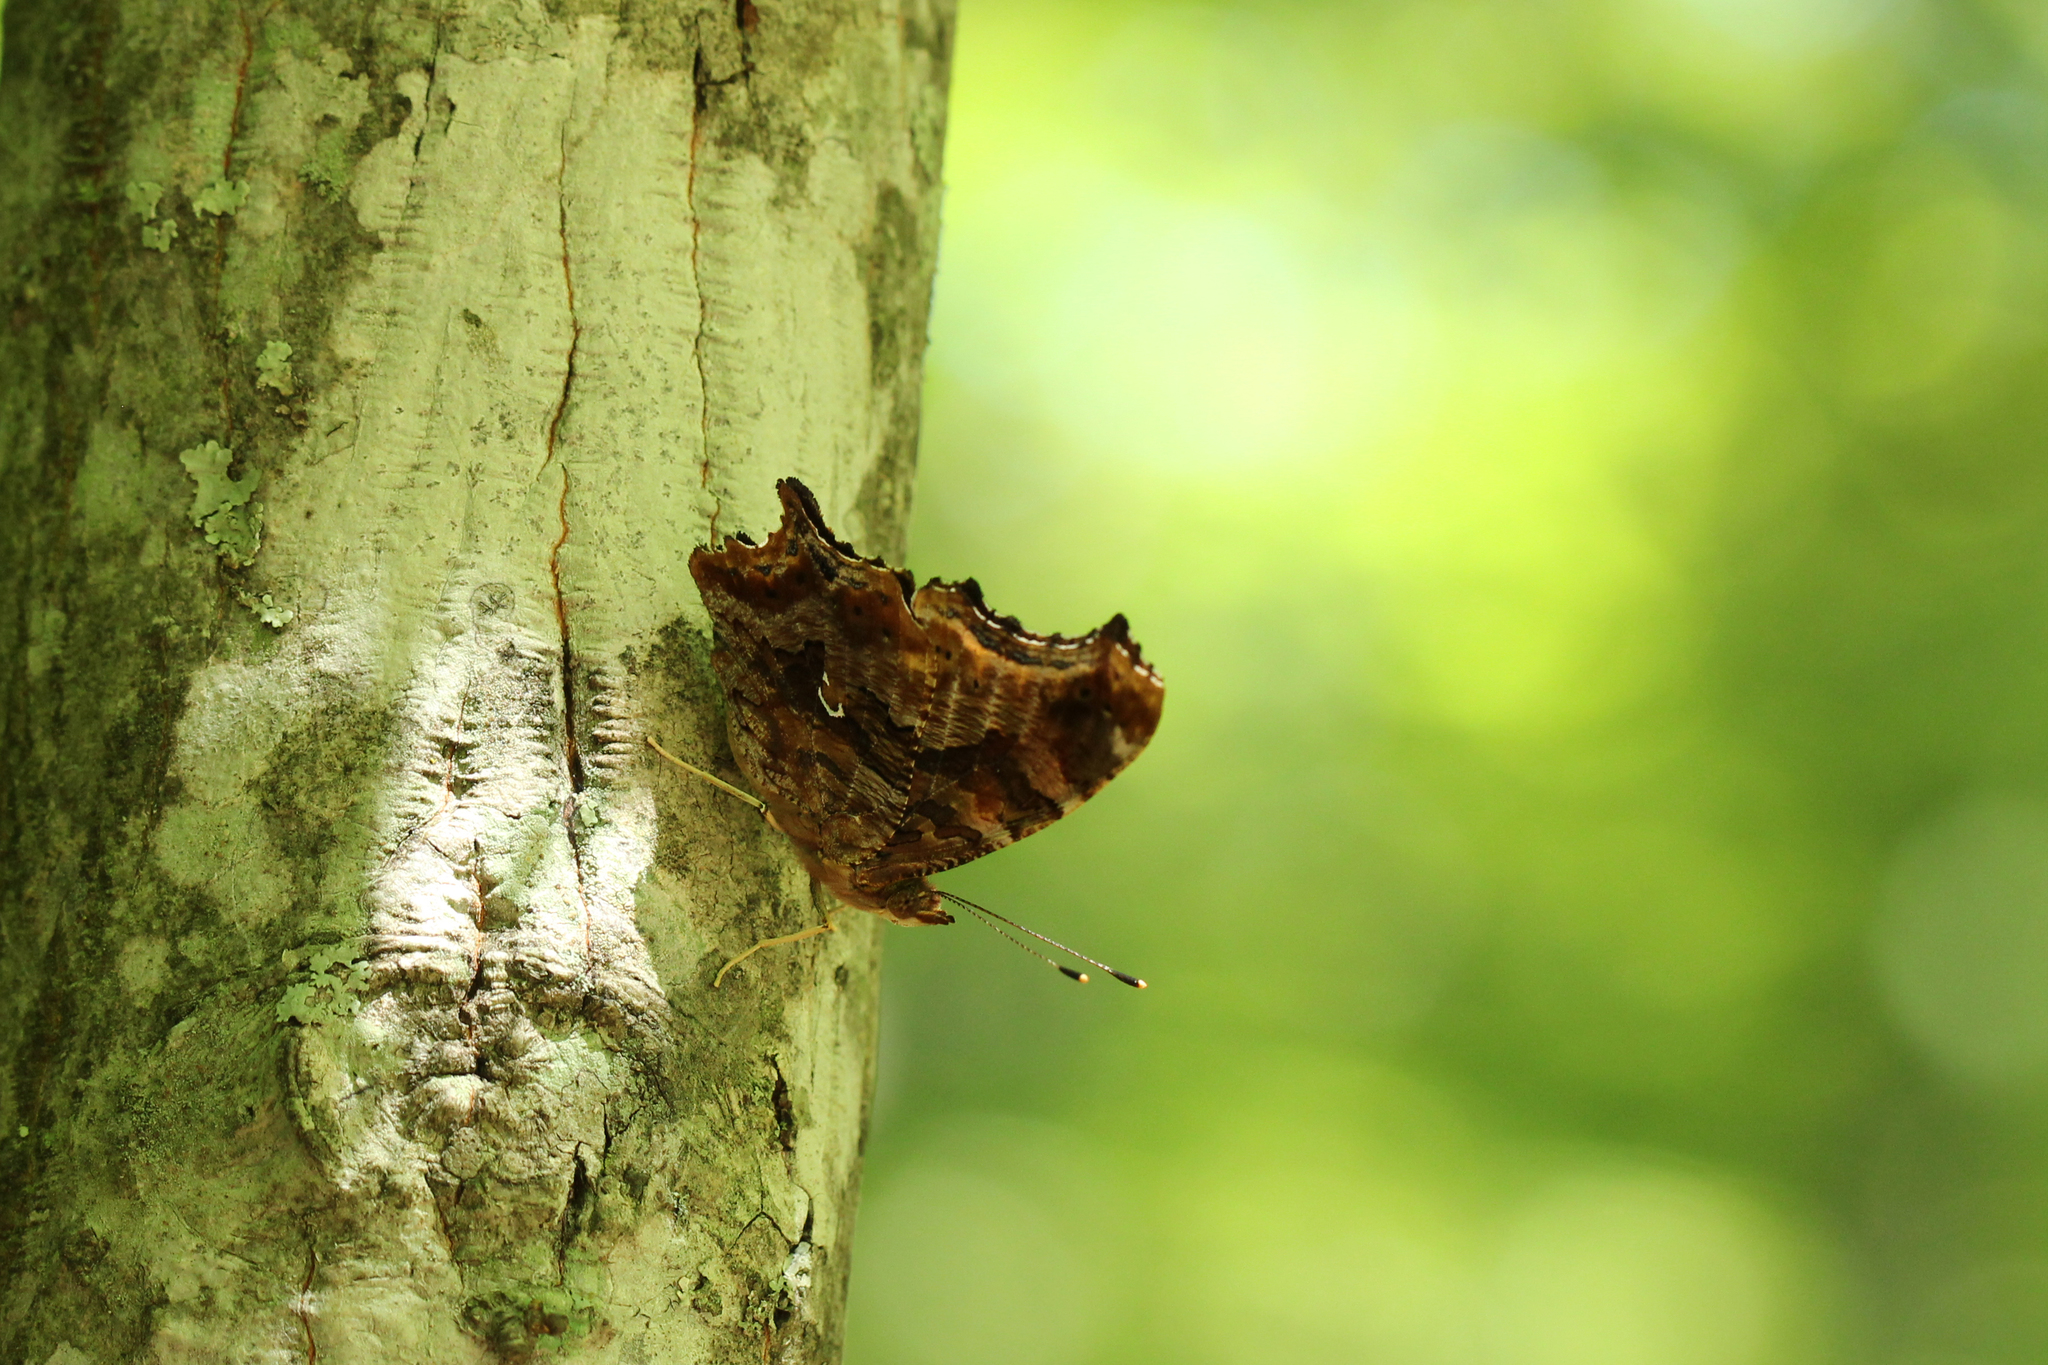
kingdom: Animalia
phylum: Arthropoda
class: Insecta
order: Lepidoptera
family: Nymphalidae
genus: Polygonia
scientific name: Polygonia interrogationis
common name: Question mark
